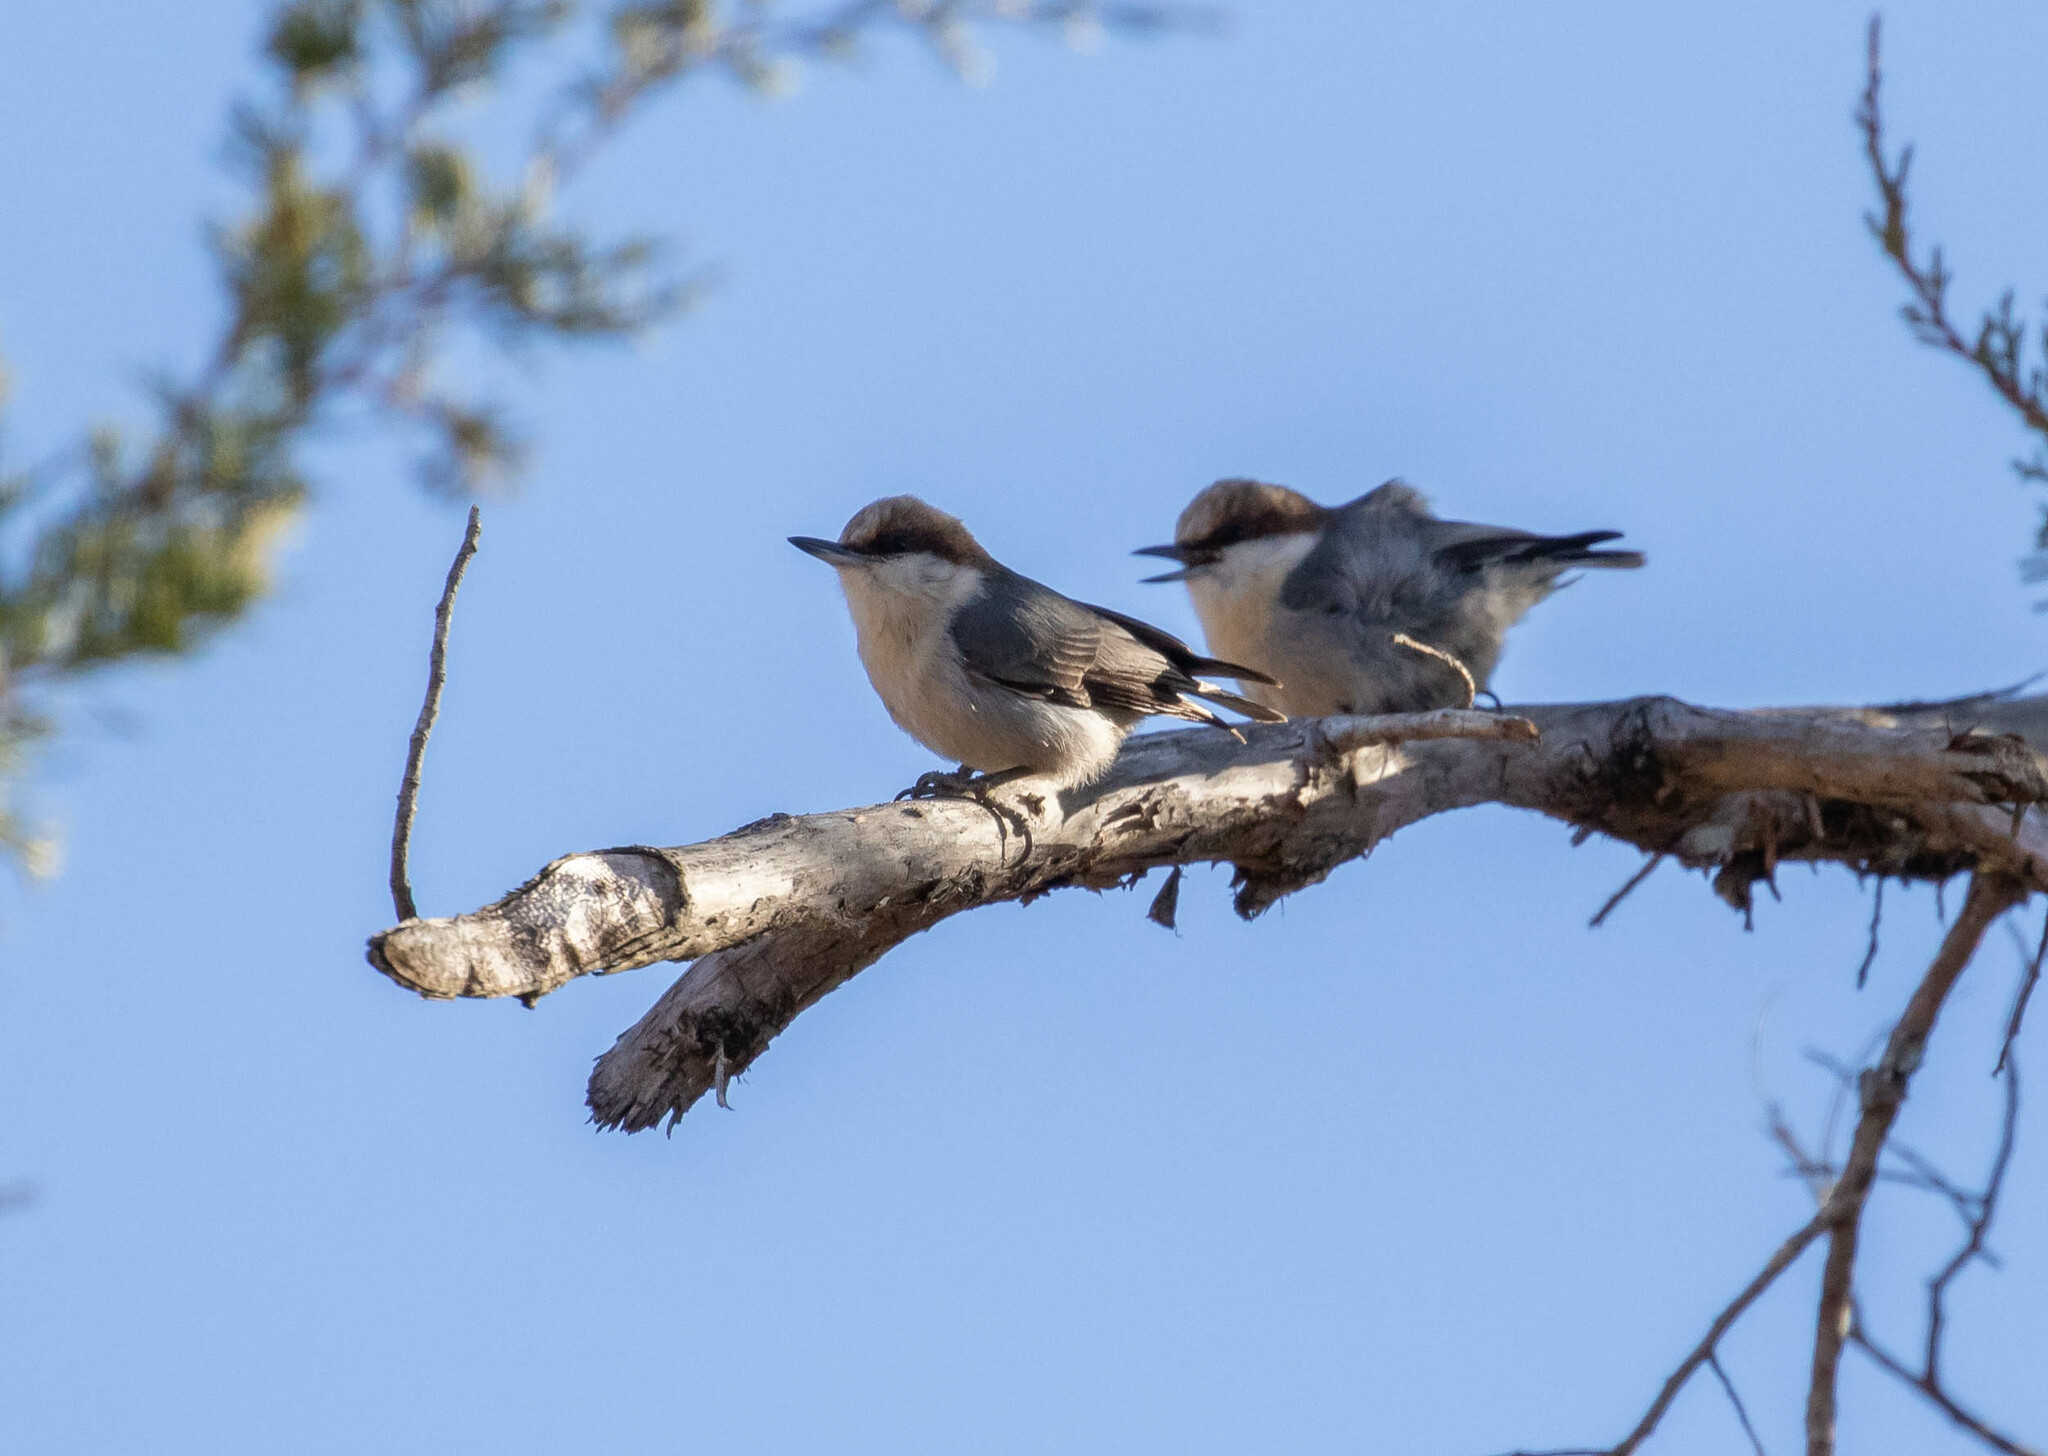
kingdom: Animalia
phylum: Chordata
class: Aves
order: Passeriformes
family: Sittidae
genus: Sitta
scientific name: Sitta pusilla
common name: Brown-headed nuthatch
